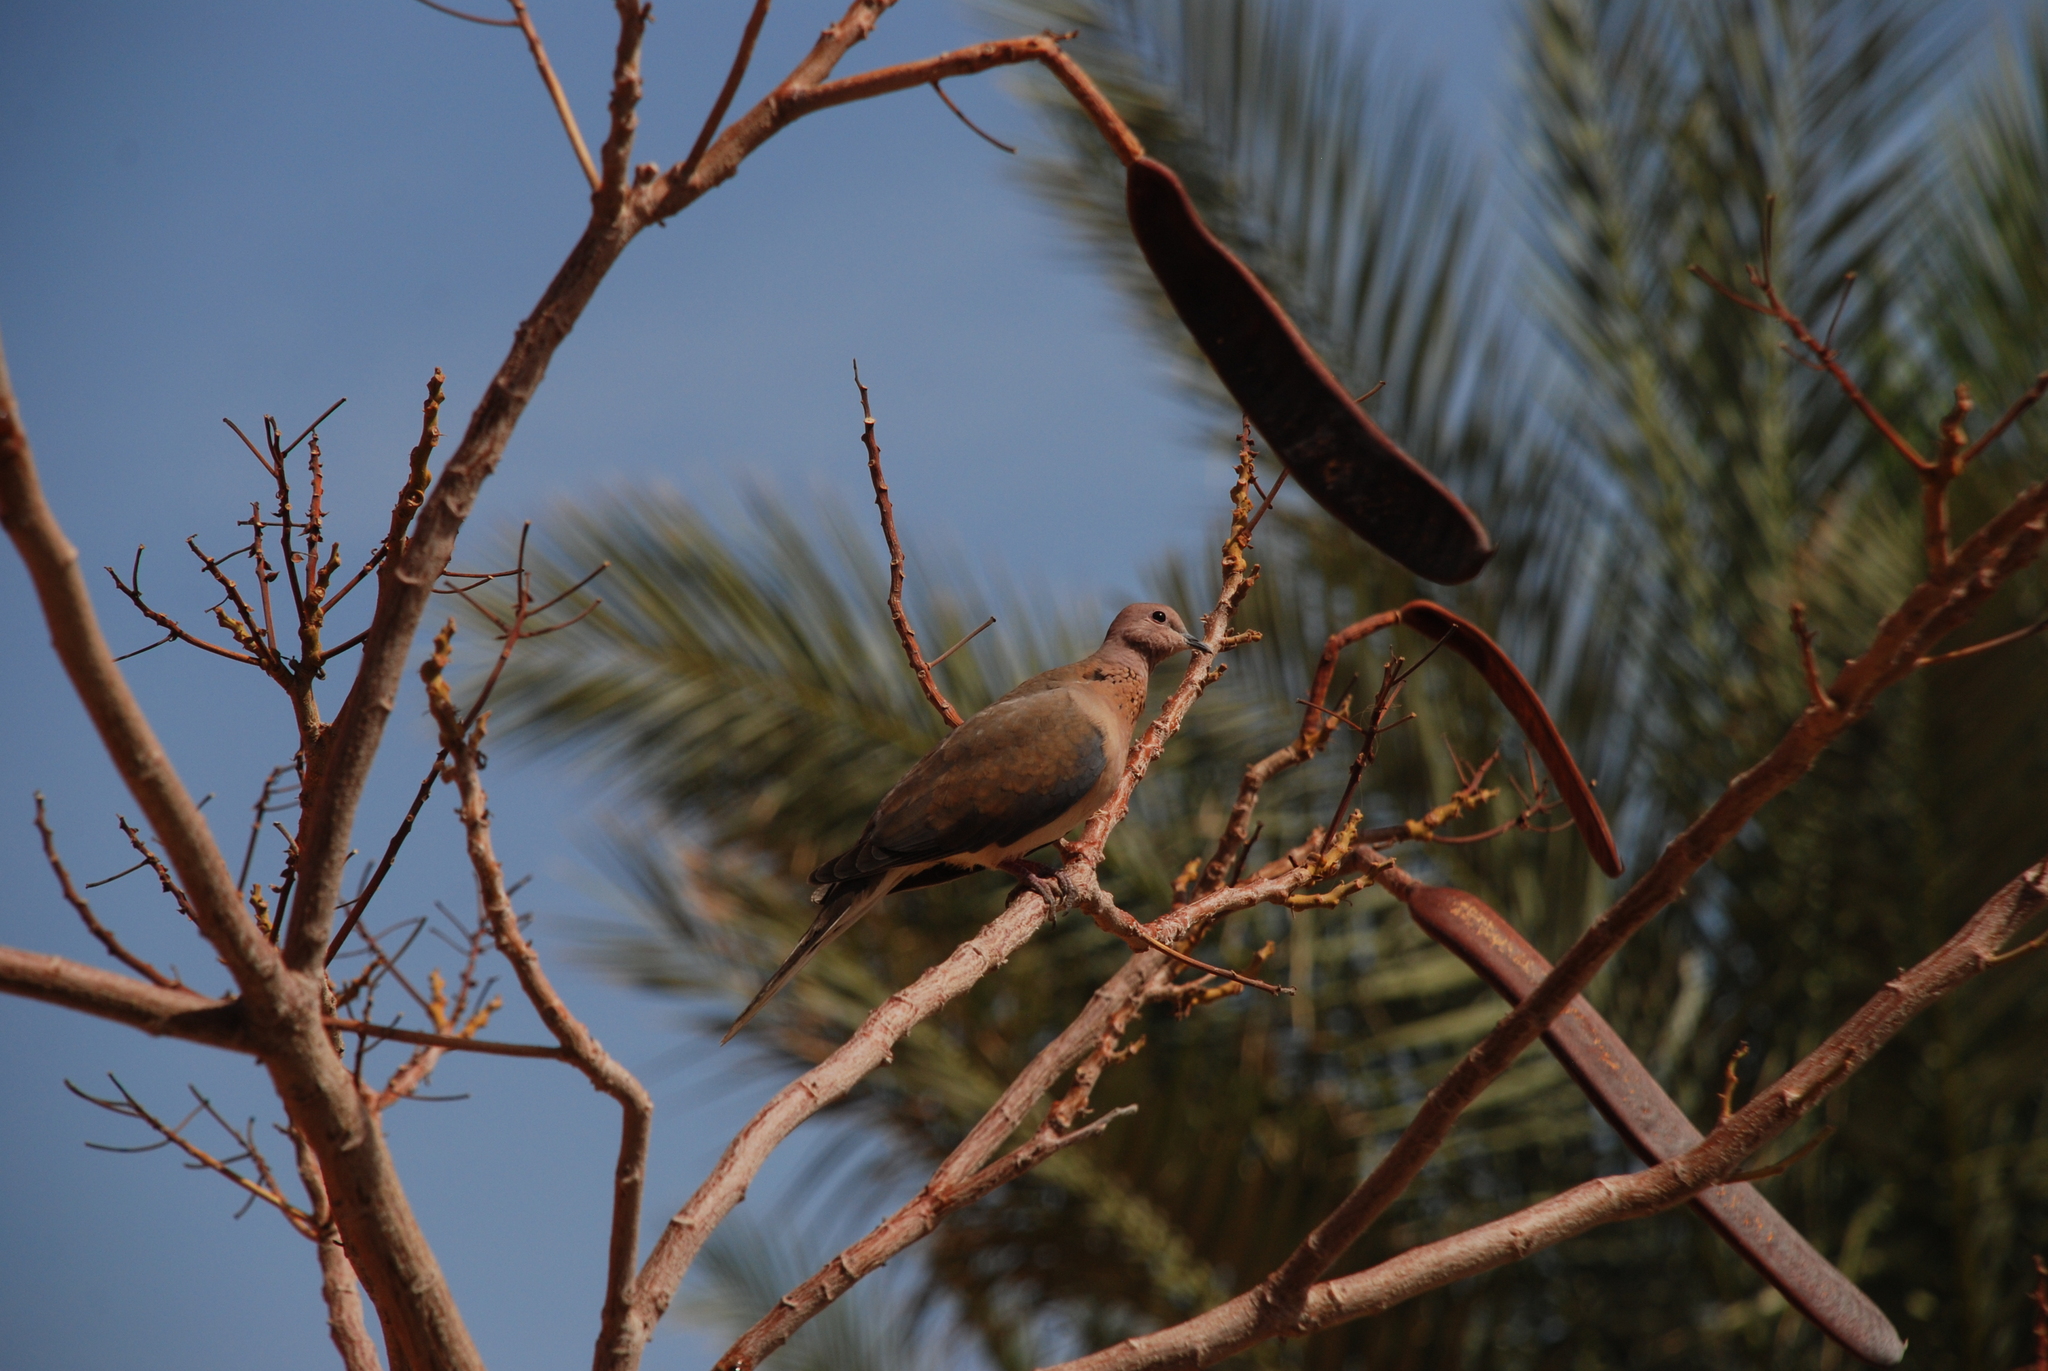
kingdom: Animalia
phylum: Chordata
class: Aves
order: Columbiformes
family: Columbidae
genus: Spilopelia
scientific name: Spilopelia senegalensis
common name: Laughing dove
